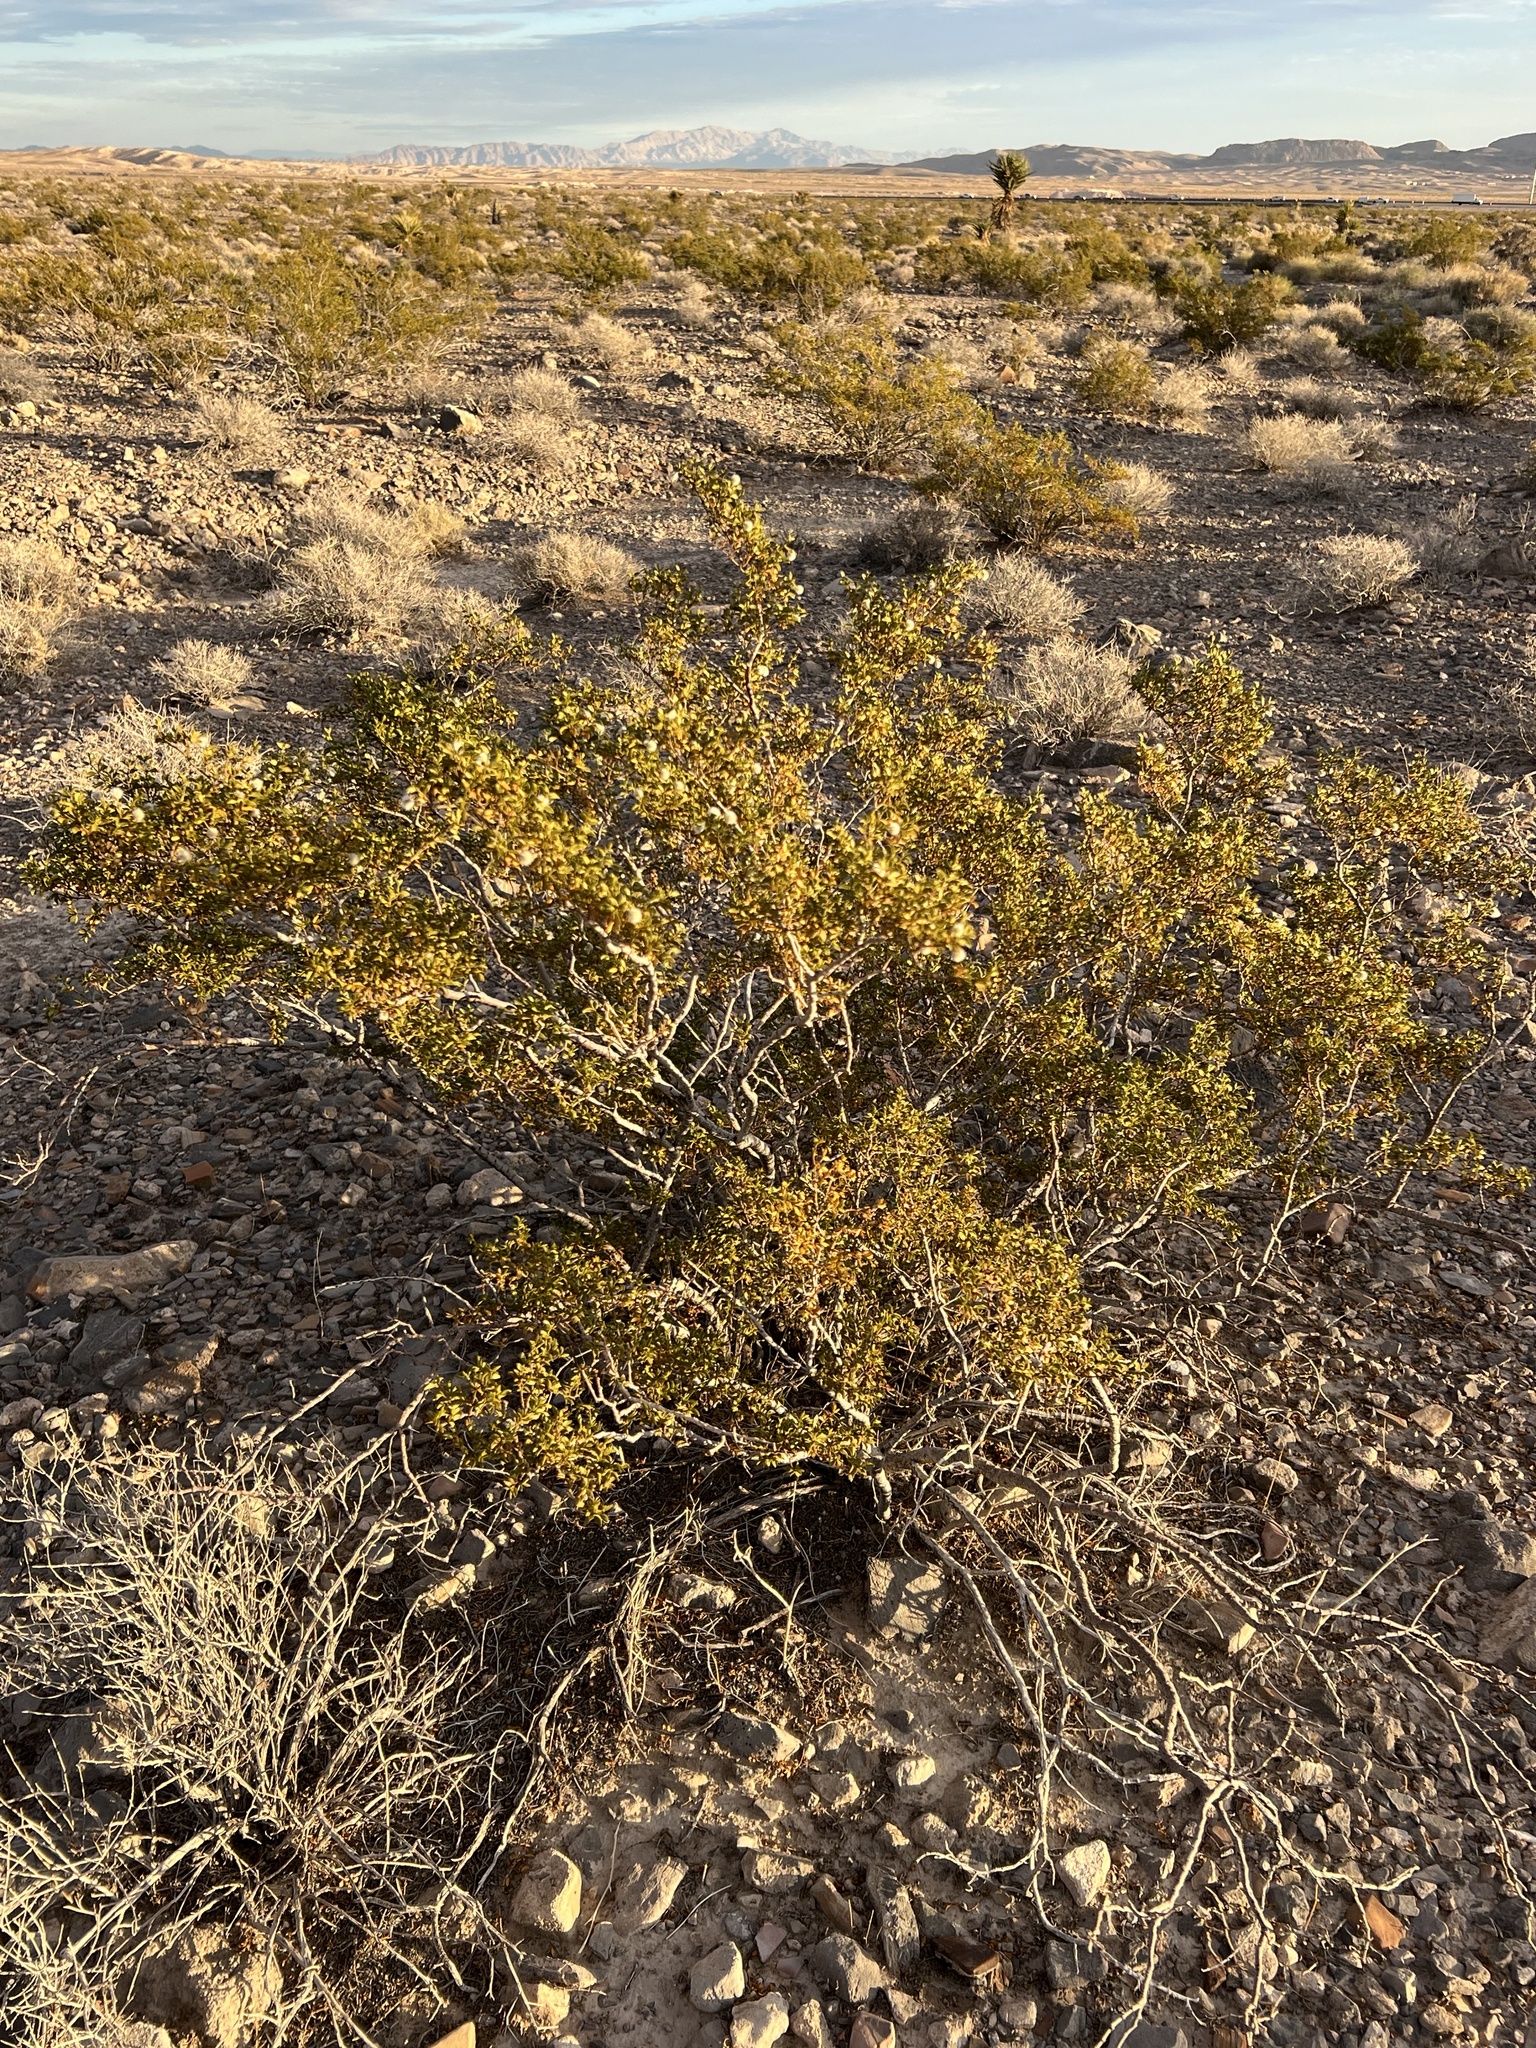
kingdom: Plantae
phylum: Tracheophyta
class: Magnoliopsida
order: Zygophyllales
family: Zygophyllaceae
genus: Larrea
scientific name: Larrea tridentata
